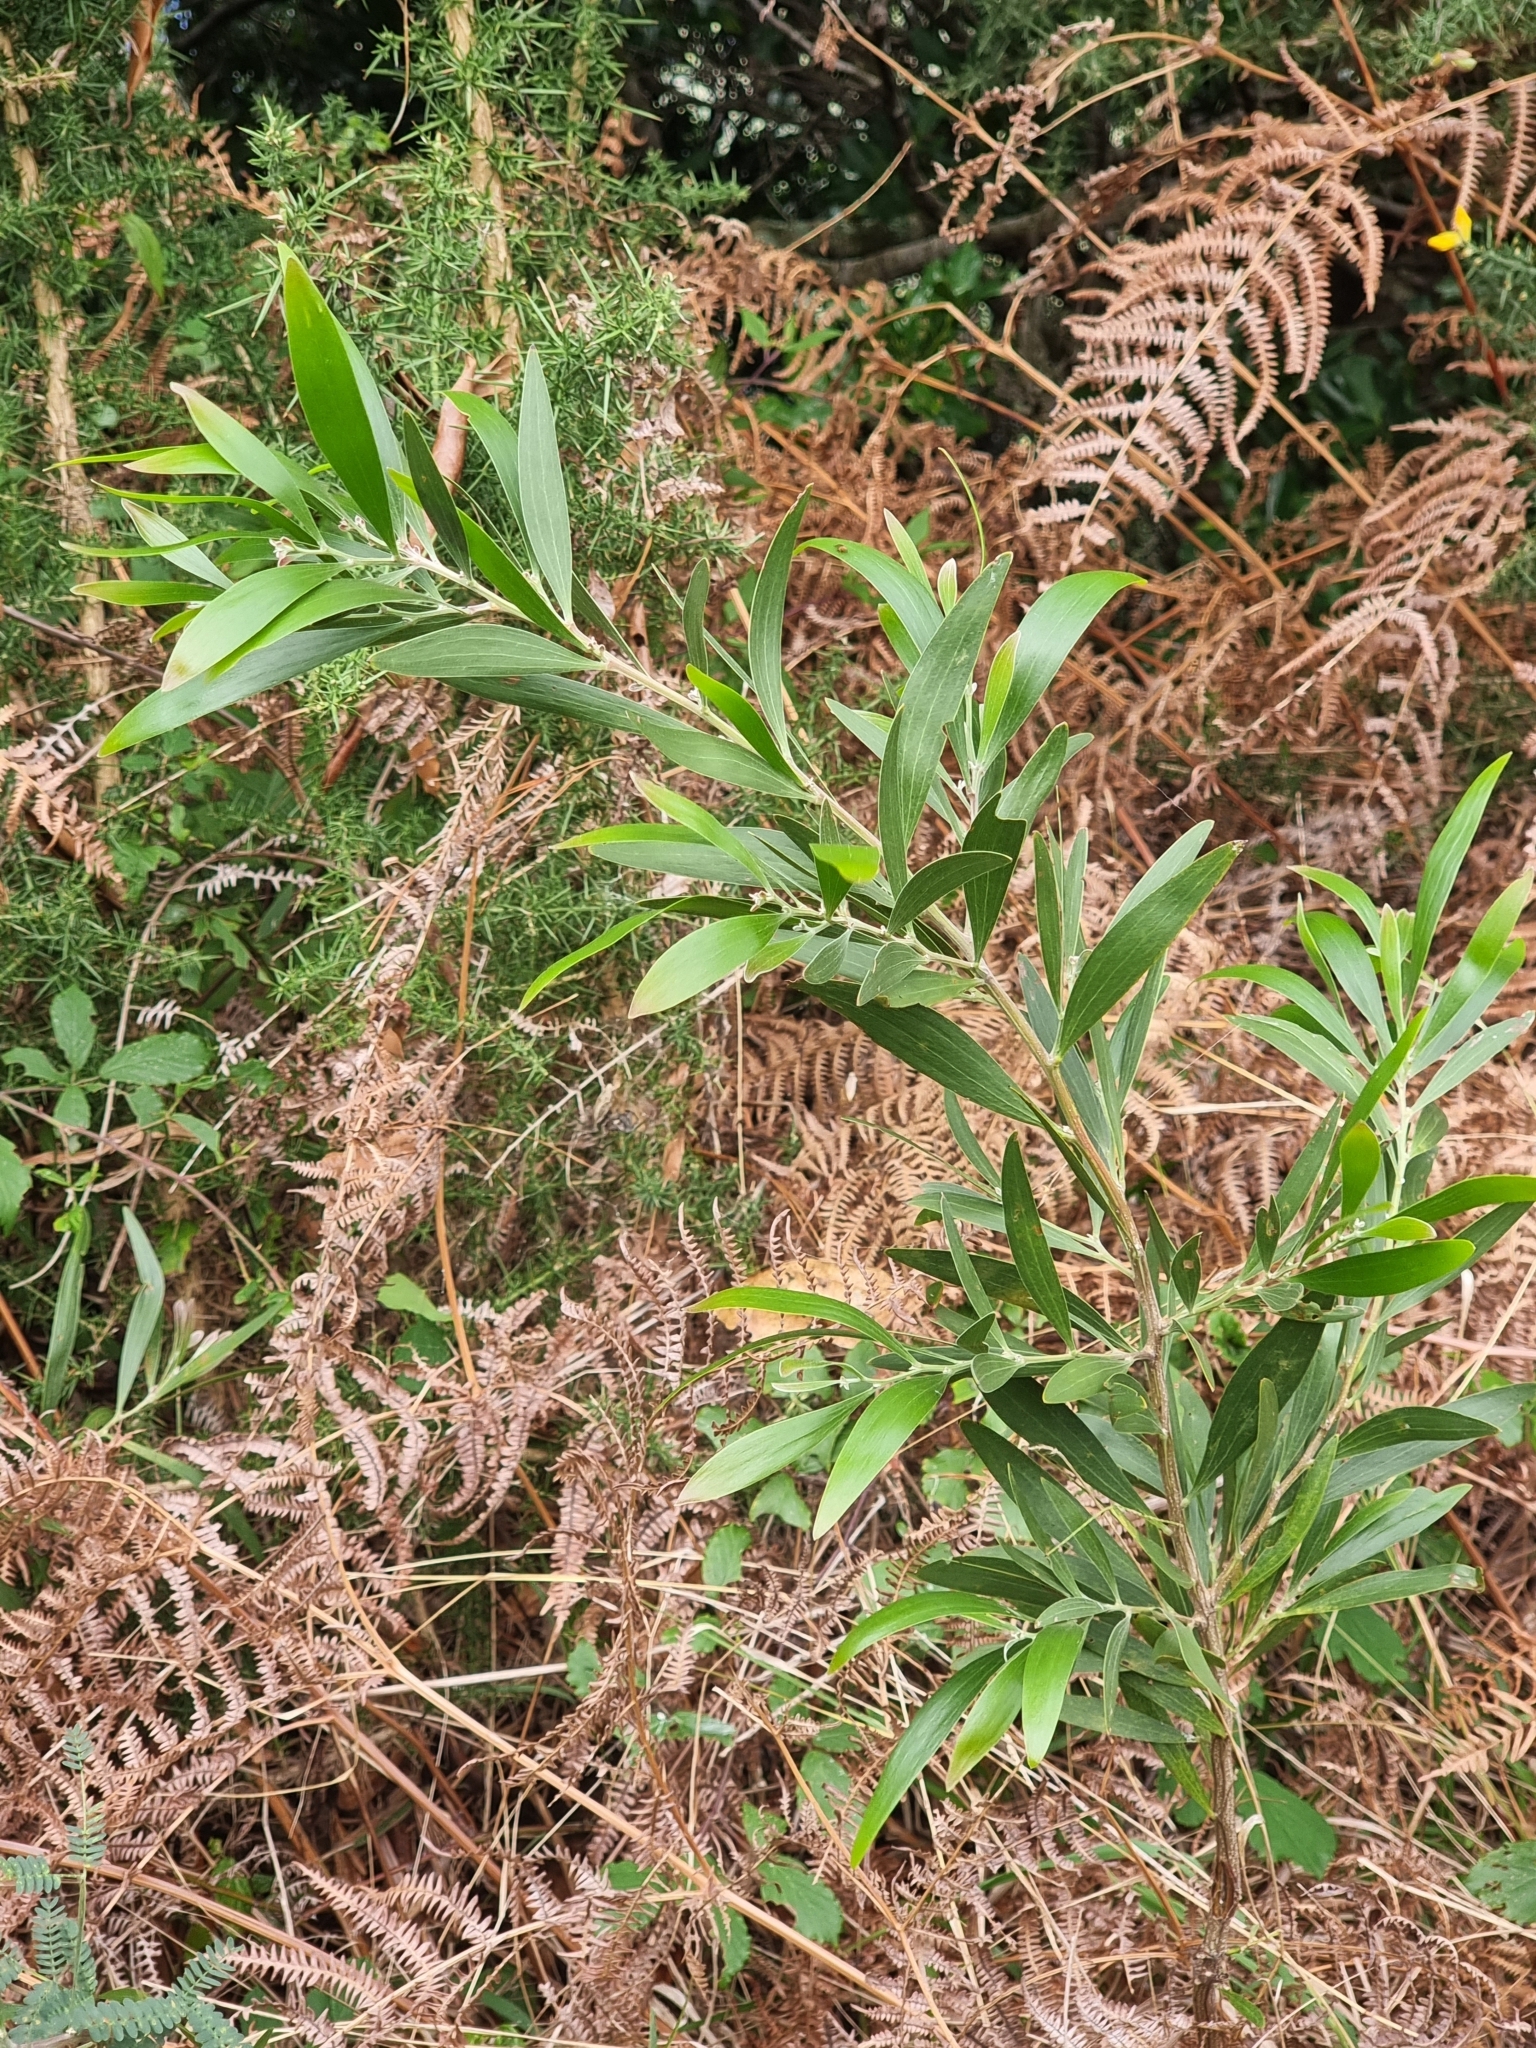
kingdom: Plantae
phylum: Tracheophyta
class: Magnoliopsida
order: Fabales
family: Fabaceae
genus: Acacia
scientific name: Acacia melanoxylon
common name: Blackwood
